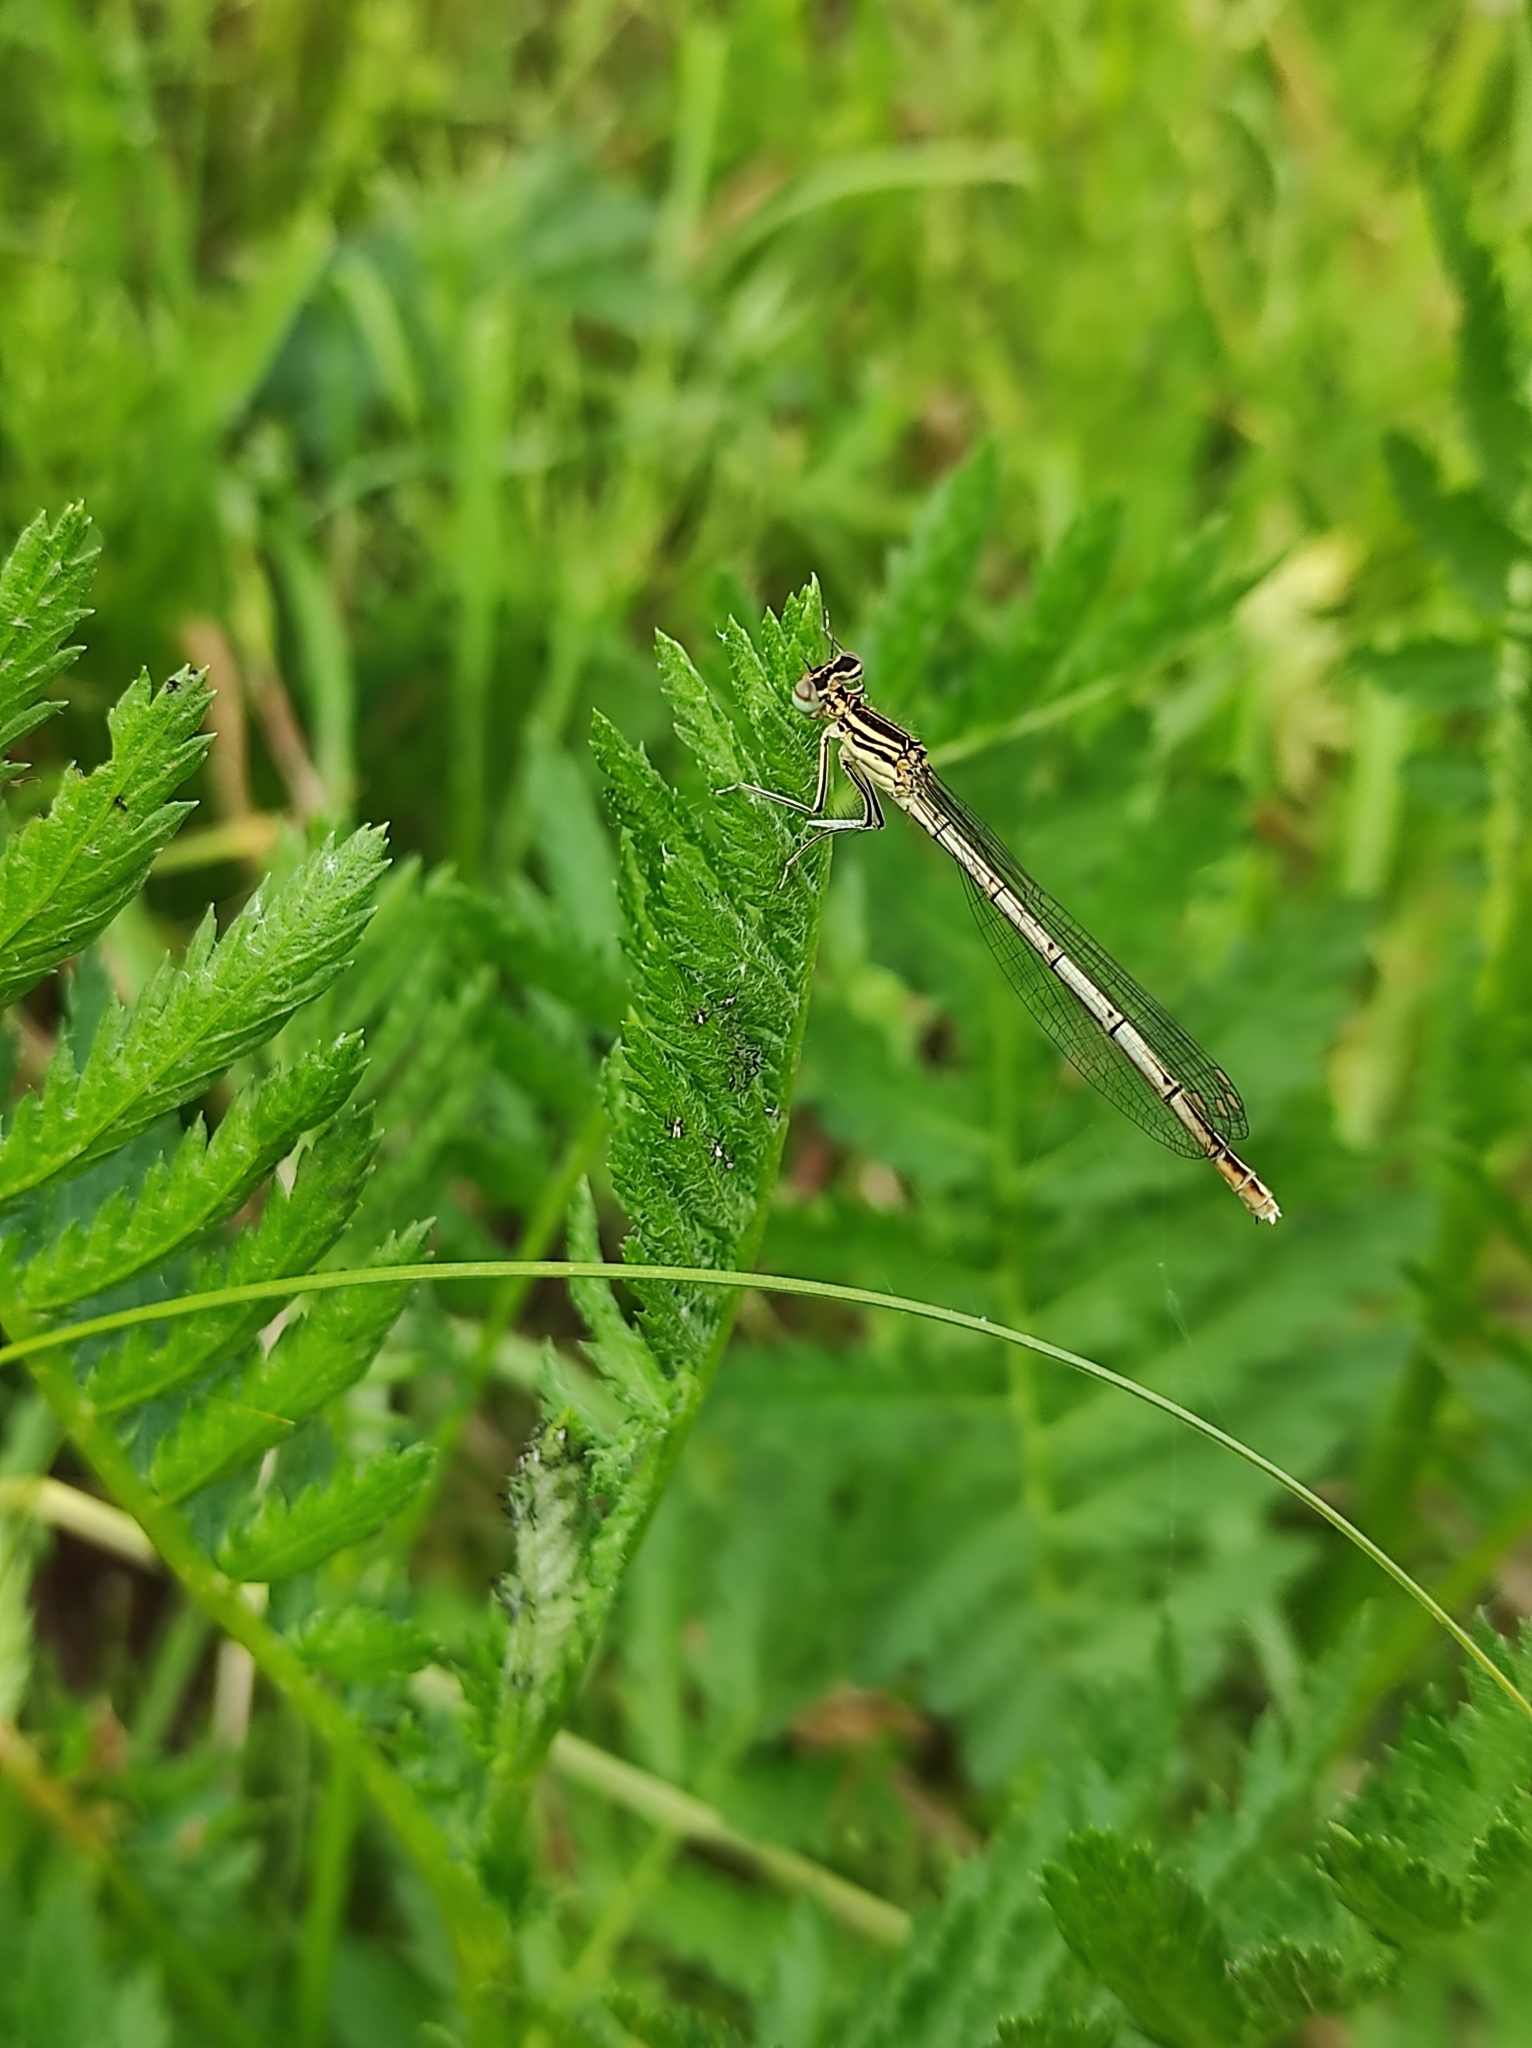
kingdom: Animalia
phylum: Arthropoda
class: Insecta
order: Odonata
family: Platycnemididae
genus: Platycnemis
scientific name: Platycnemis pennipes
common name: White-legged damselfly
